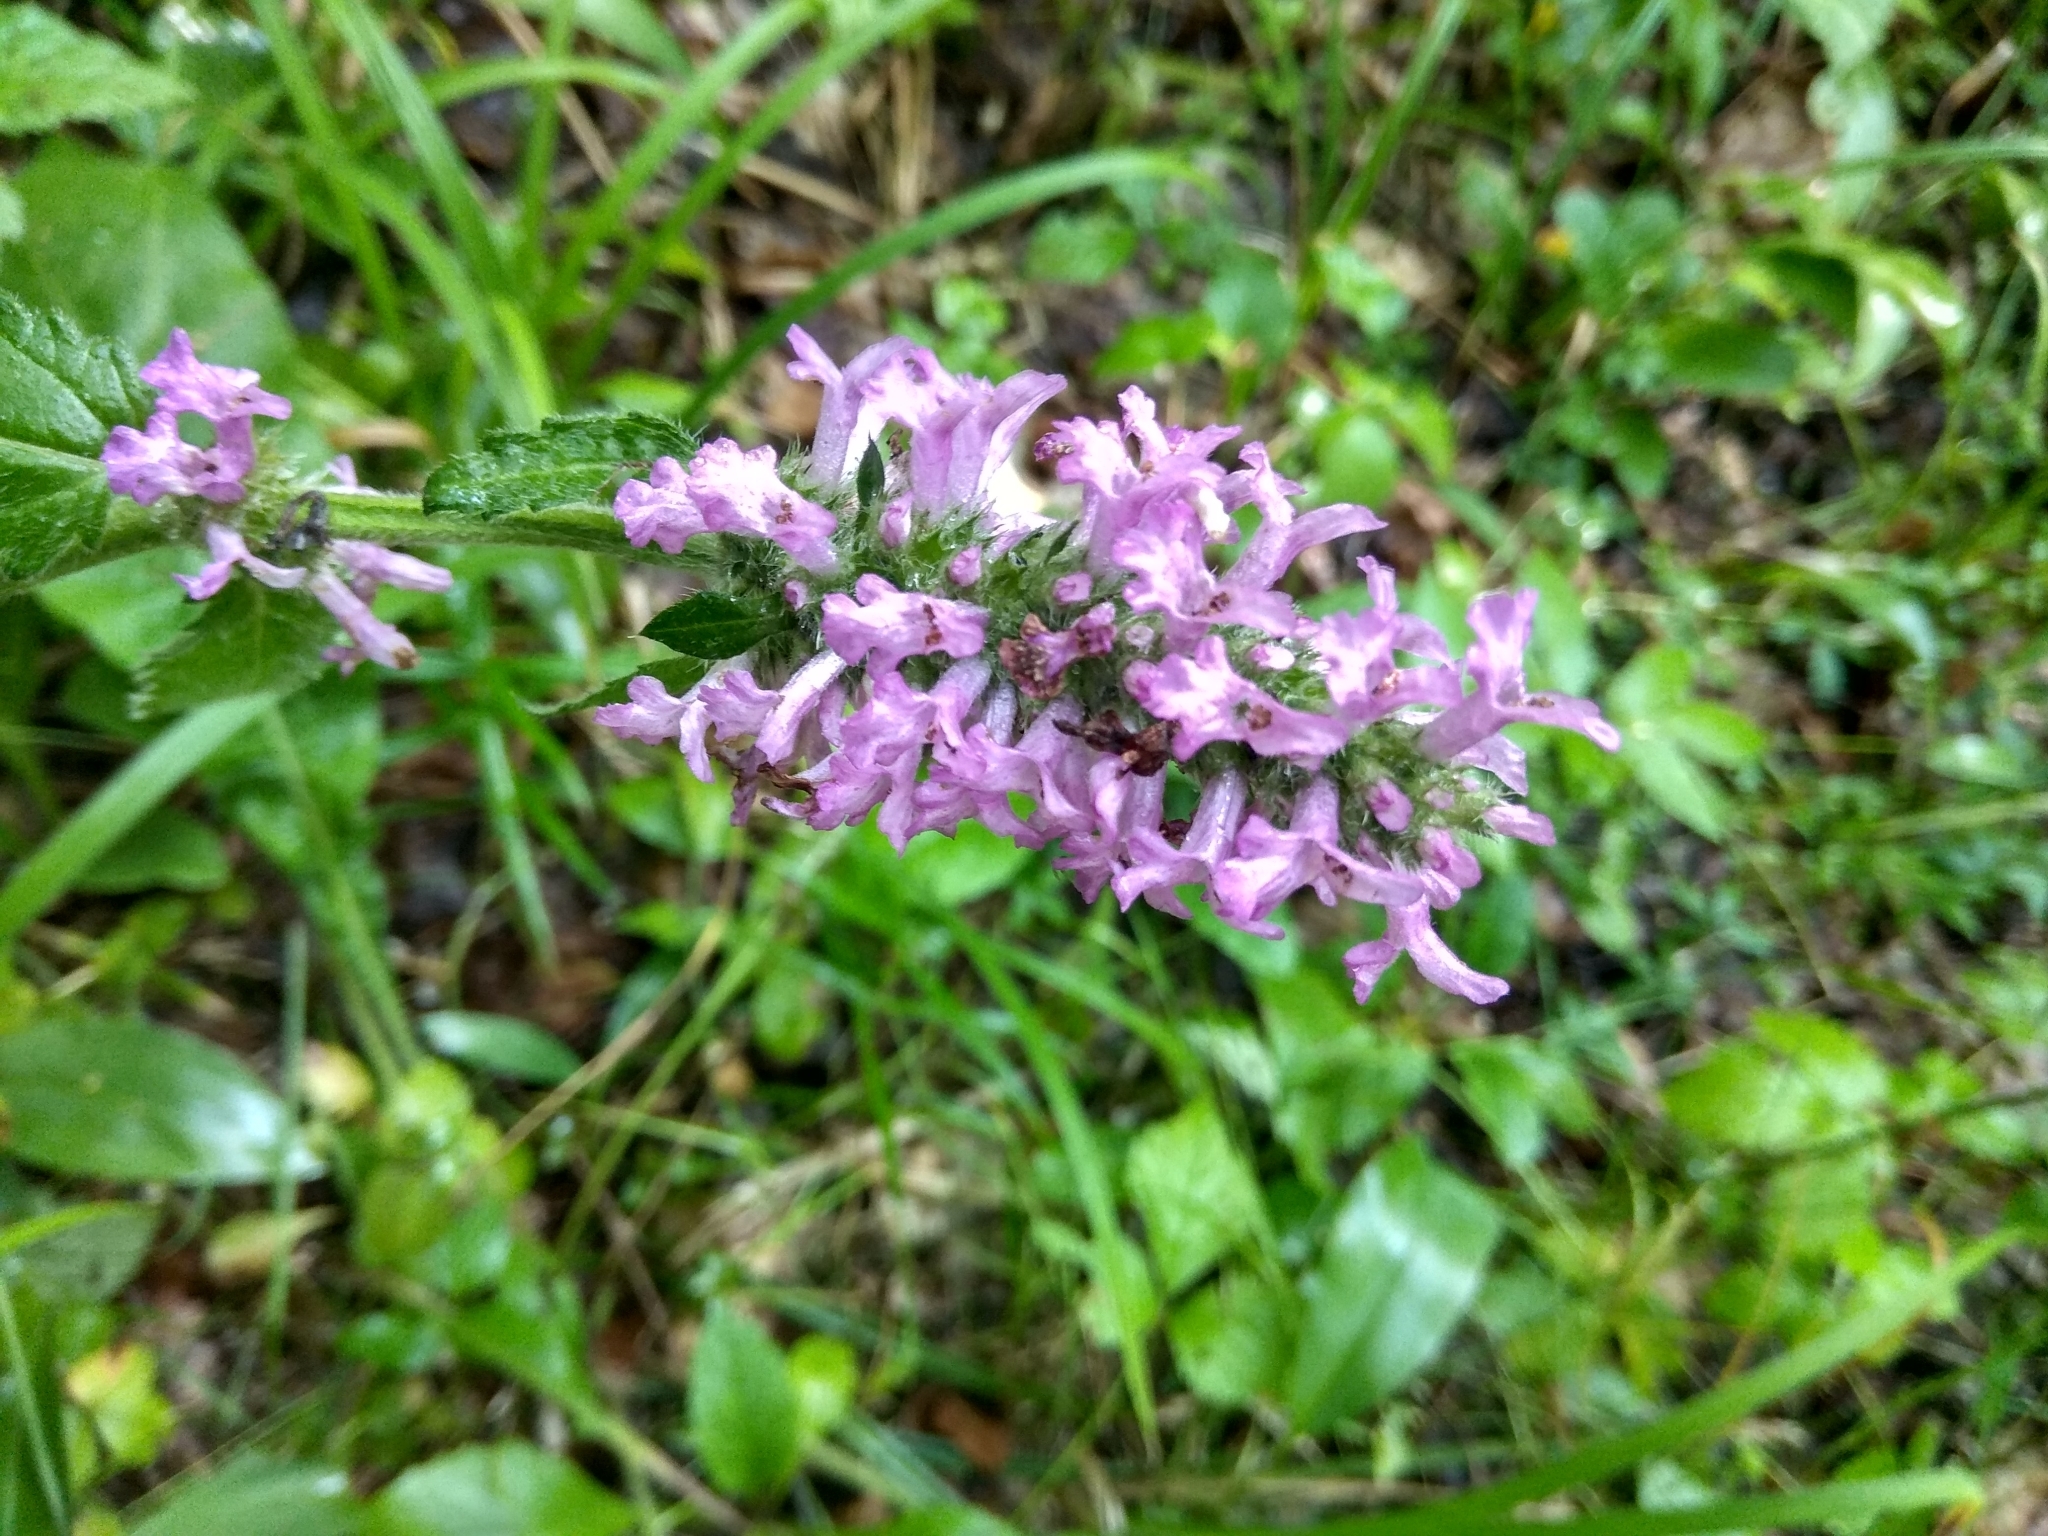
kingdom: Plantae
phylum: Tracheophyta
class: Magnoliopsida
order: Lamiales
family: Lamiaceae
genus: Betonica
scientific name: Betonica officinalis
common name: Bishop's-wort
